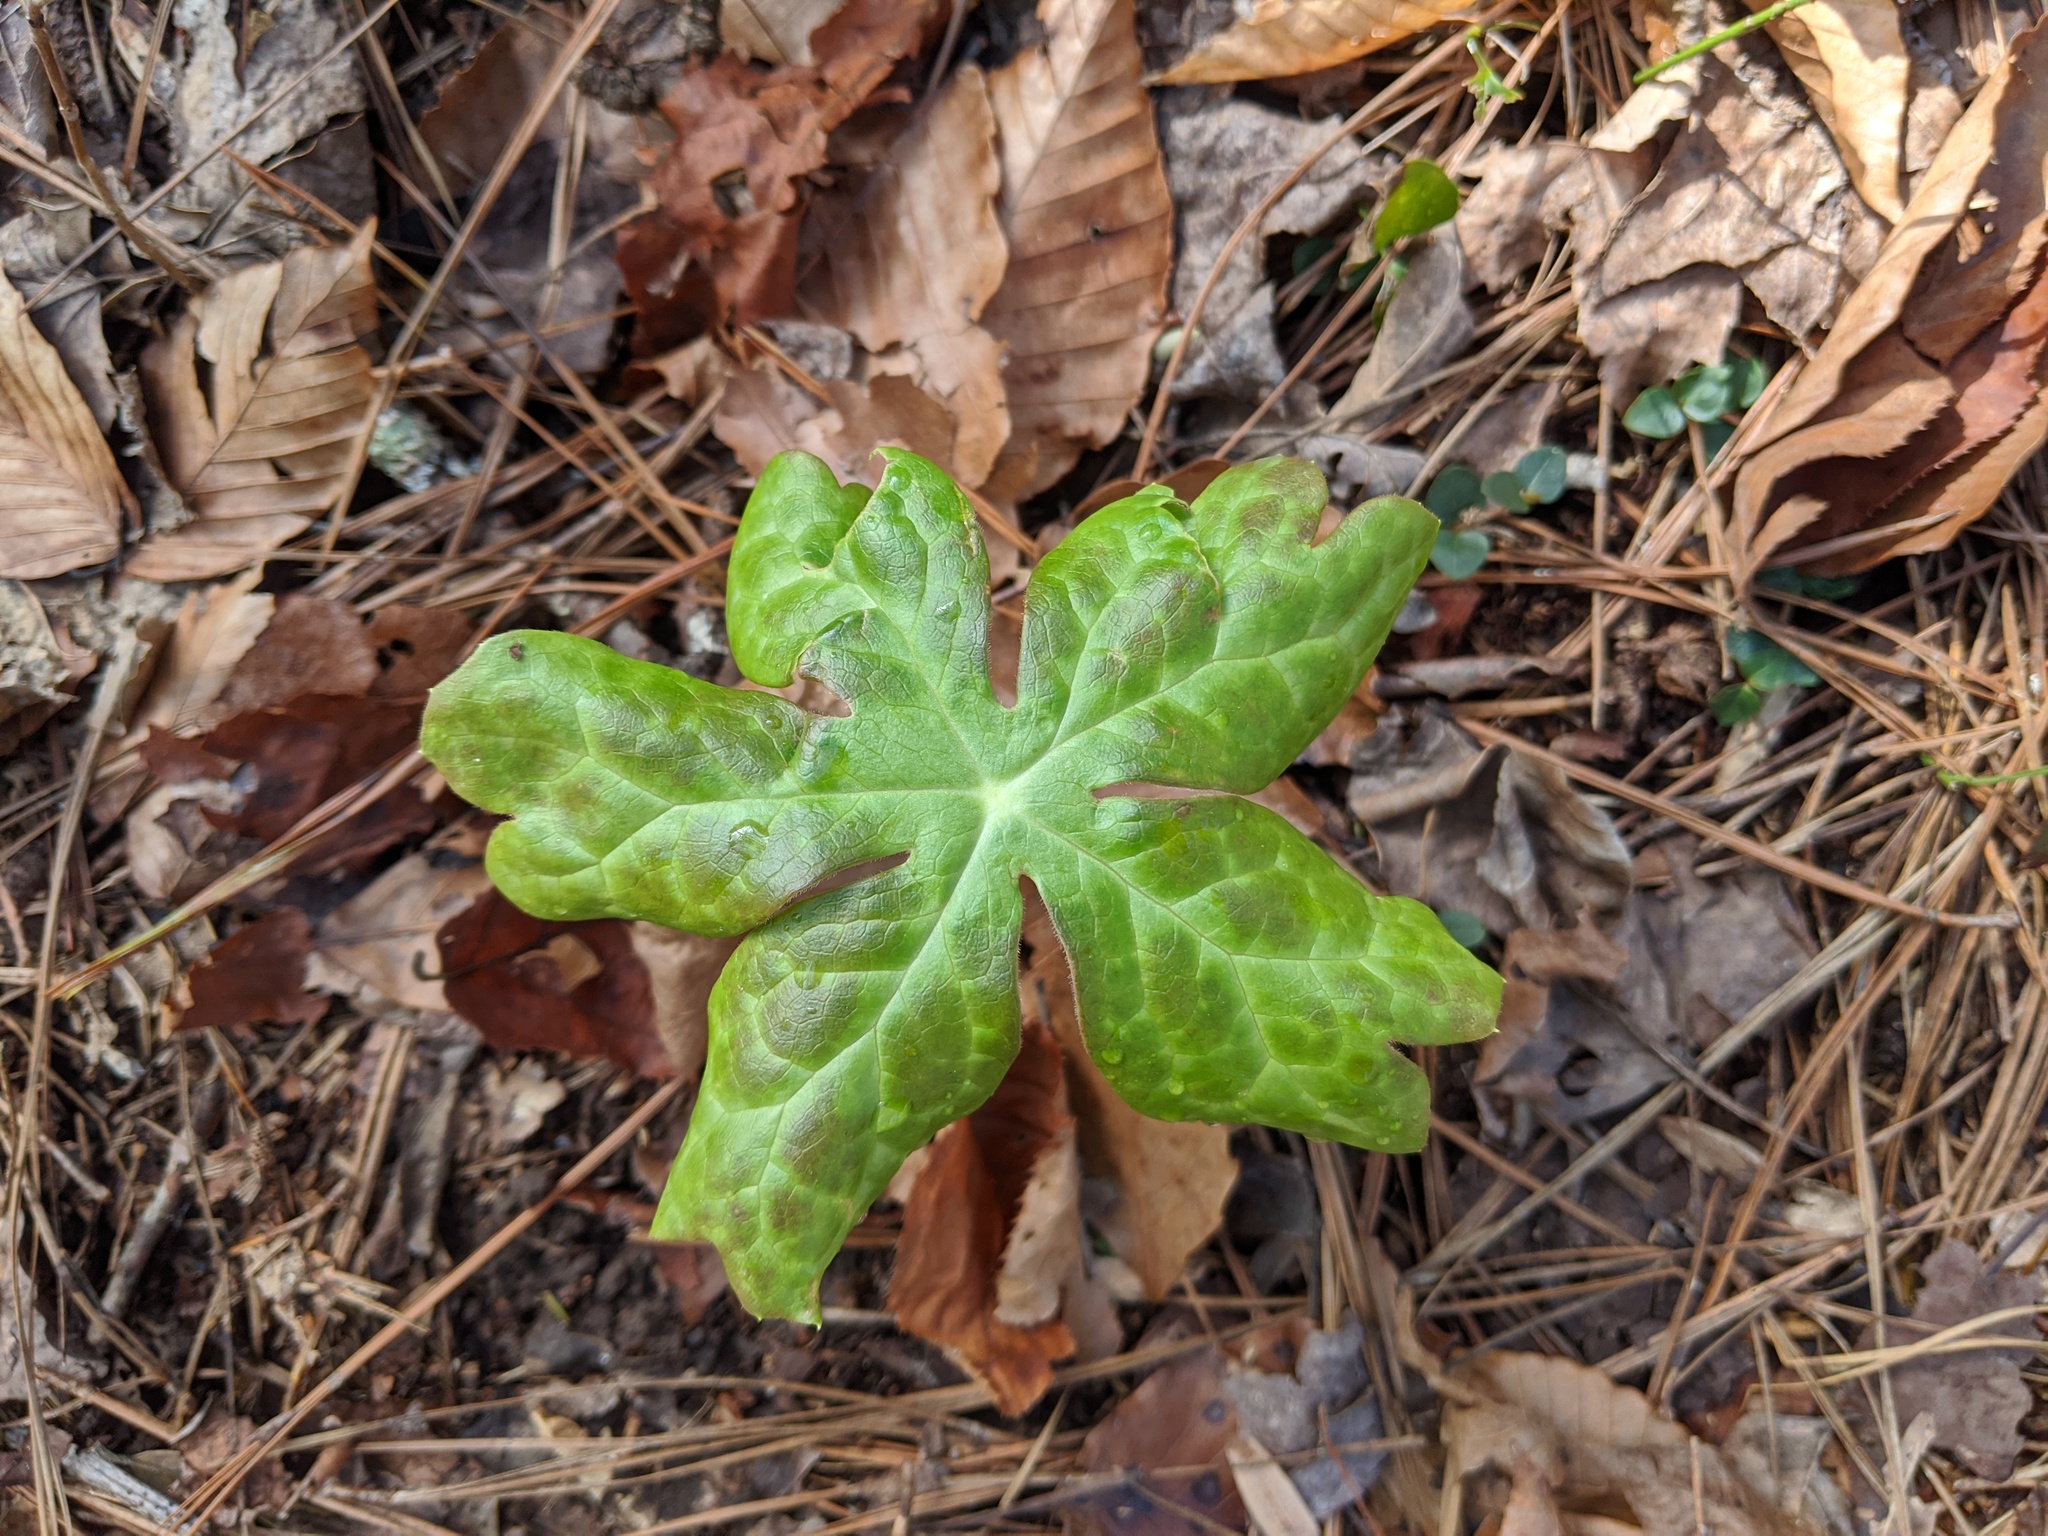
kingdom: Plantae
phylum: Tracheophyta
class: Magnoliopsida
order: Ranunculales
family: Berberidaceae
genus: Podophyllum
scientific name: Podophyllum peltatum
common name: Wild mandrake
